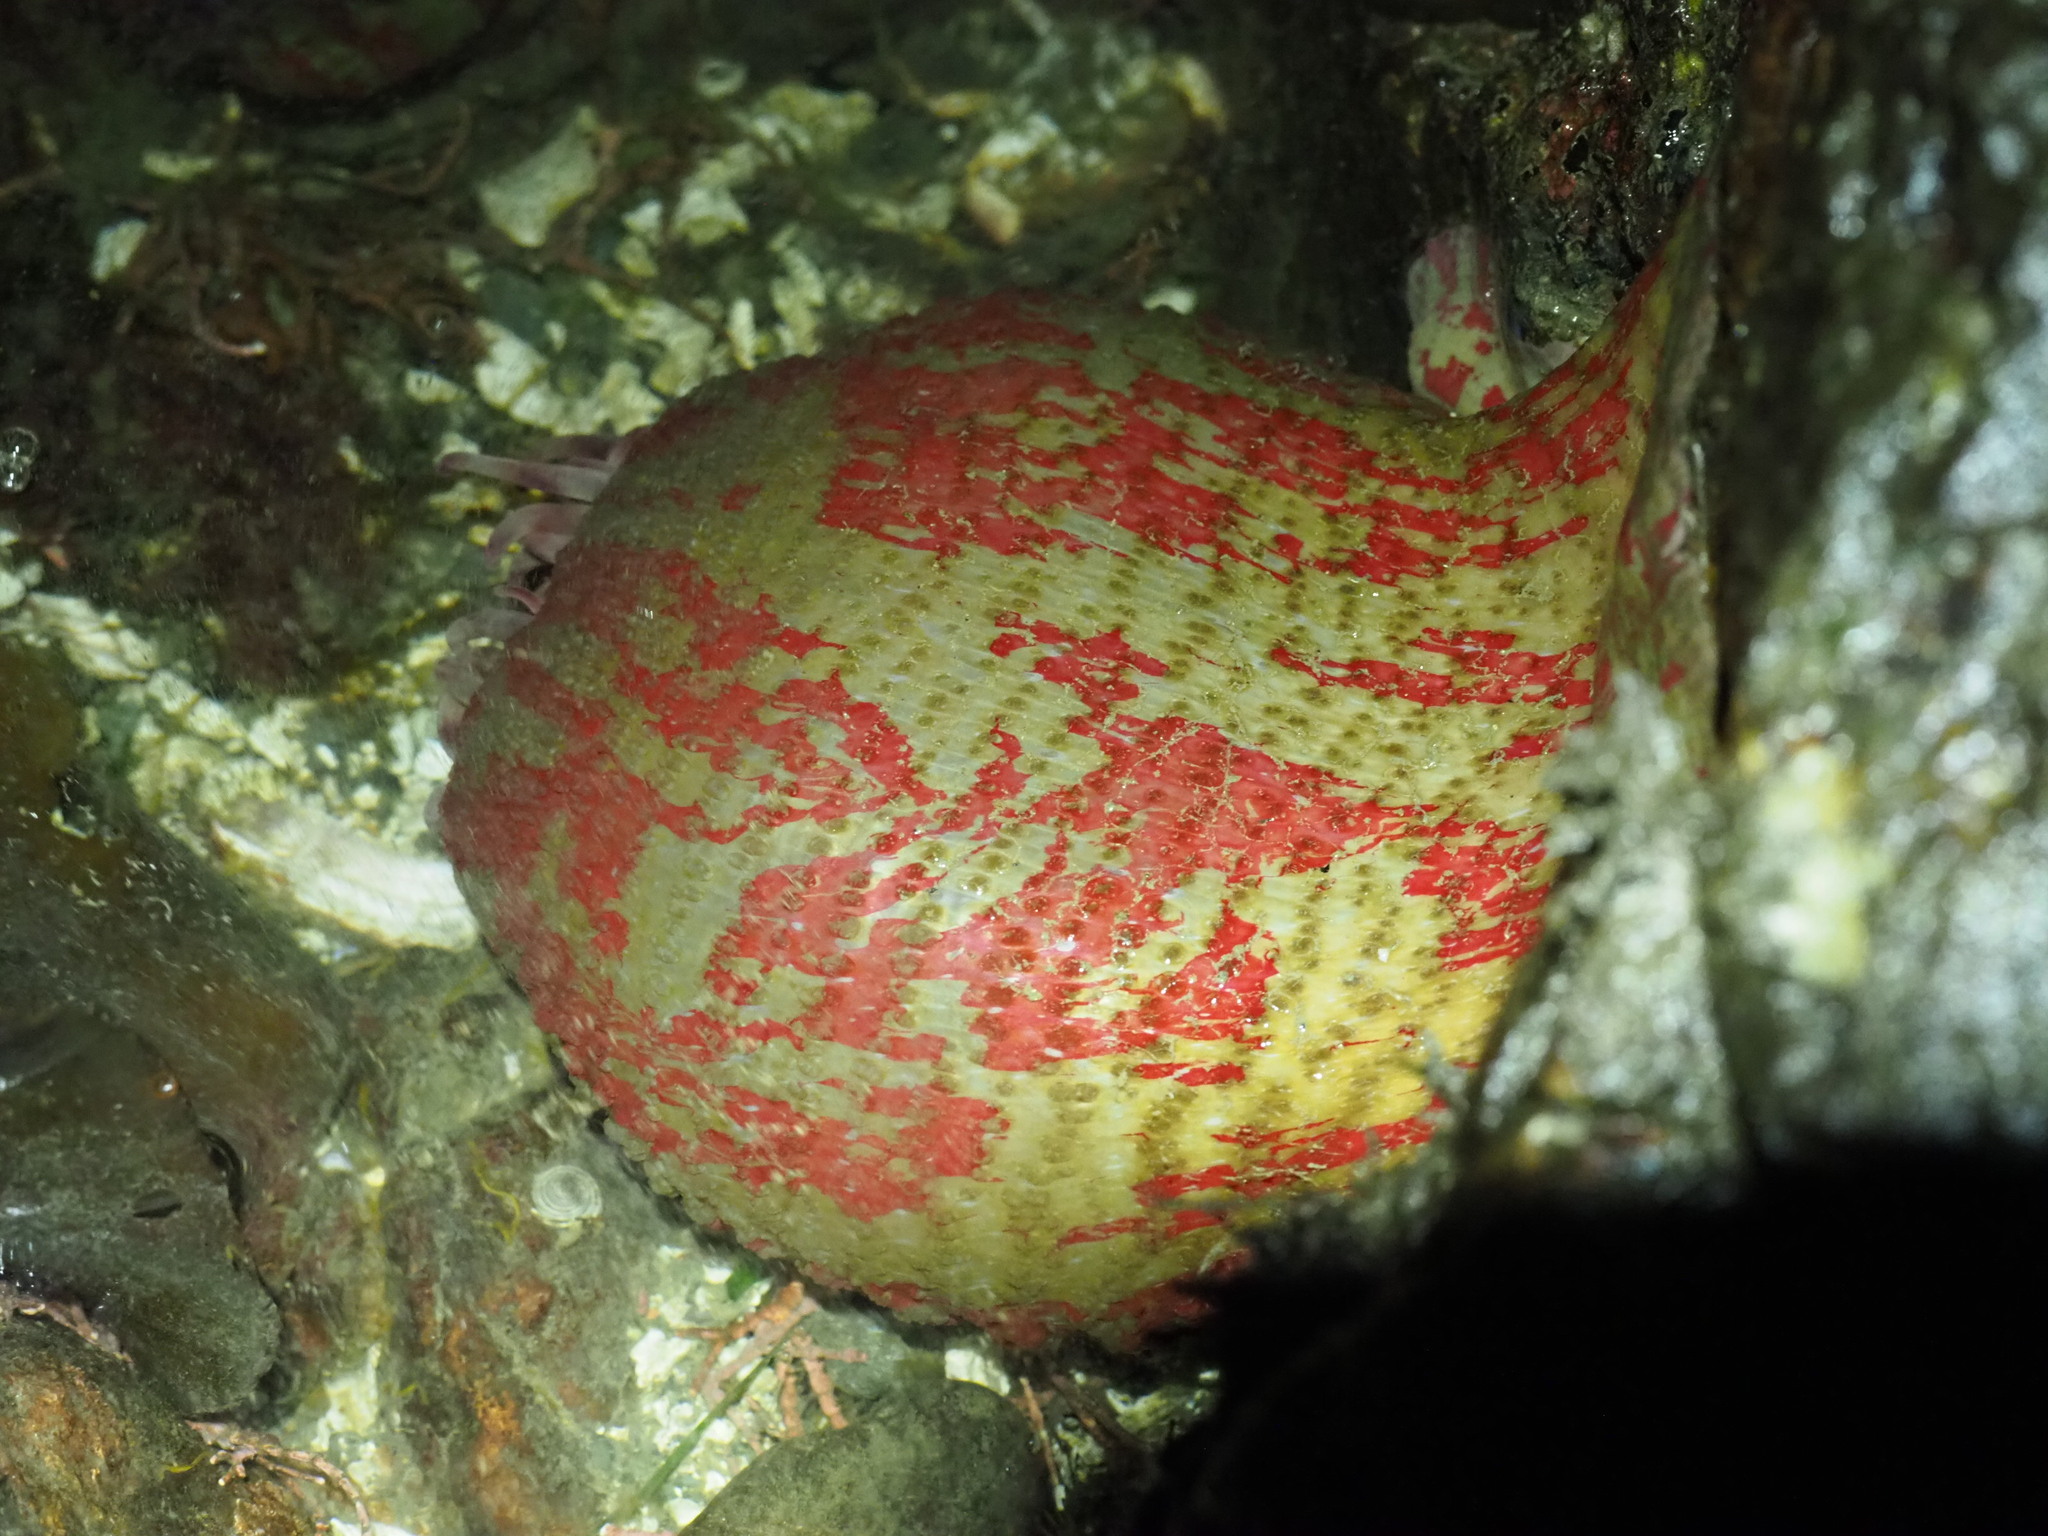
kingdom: Animalia
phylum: Cnidaria
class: Anthozoa
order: Actiniaria
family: Actiniidae
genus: Urticina
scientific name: Urticina grebelnyi
